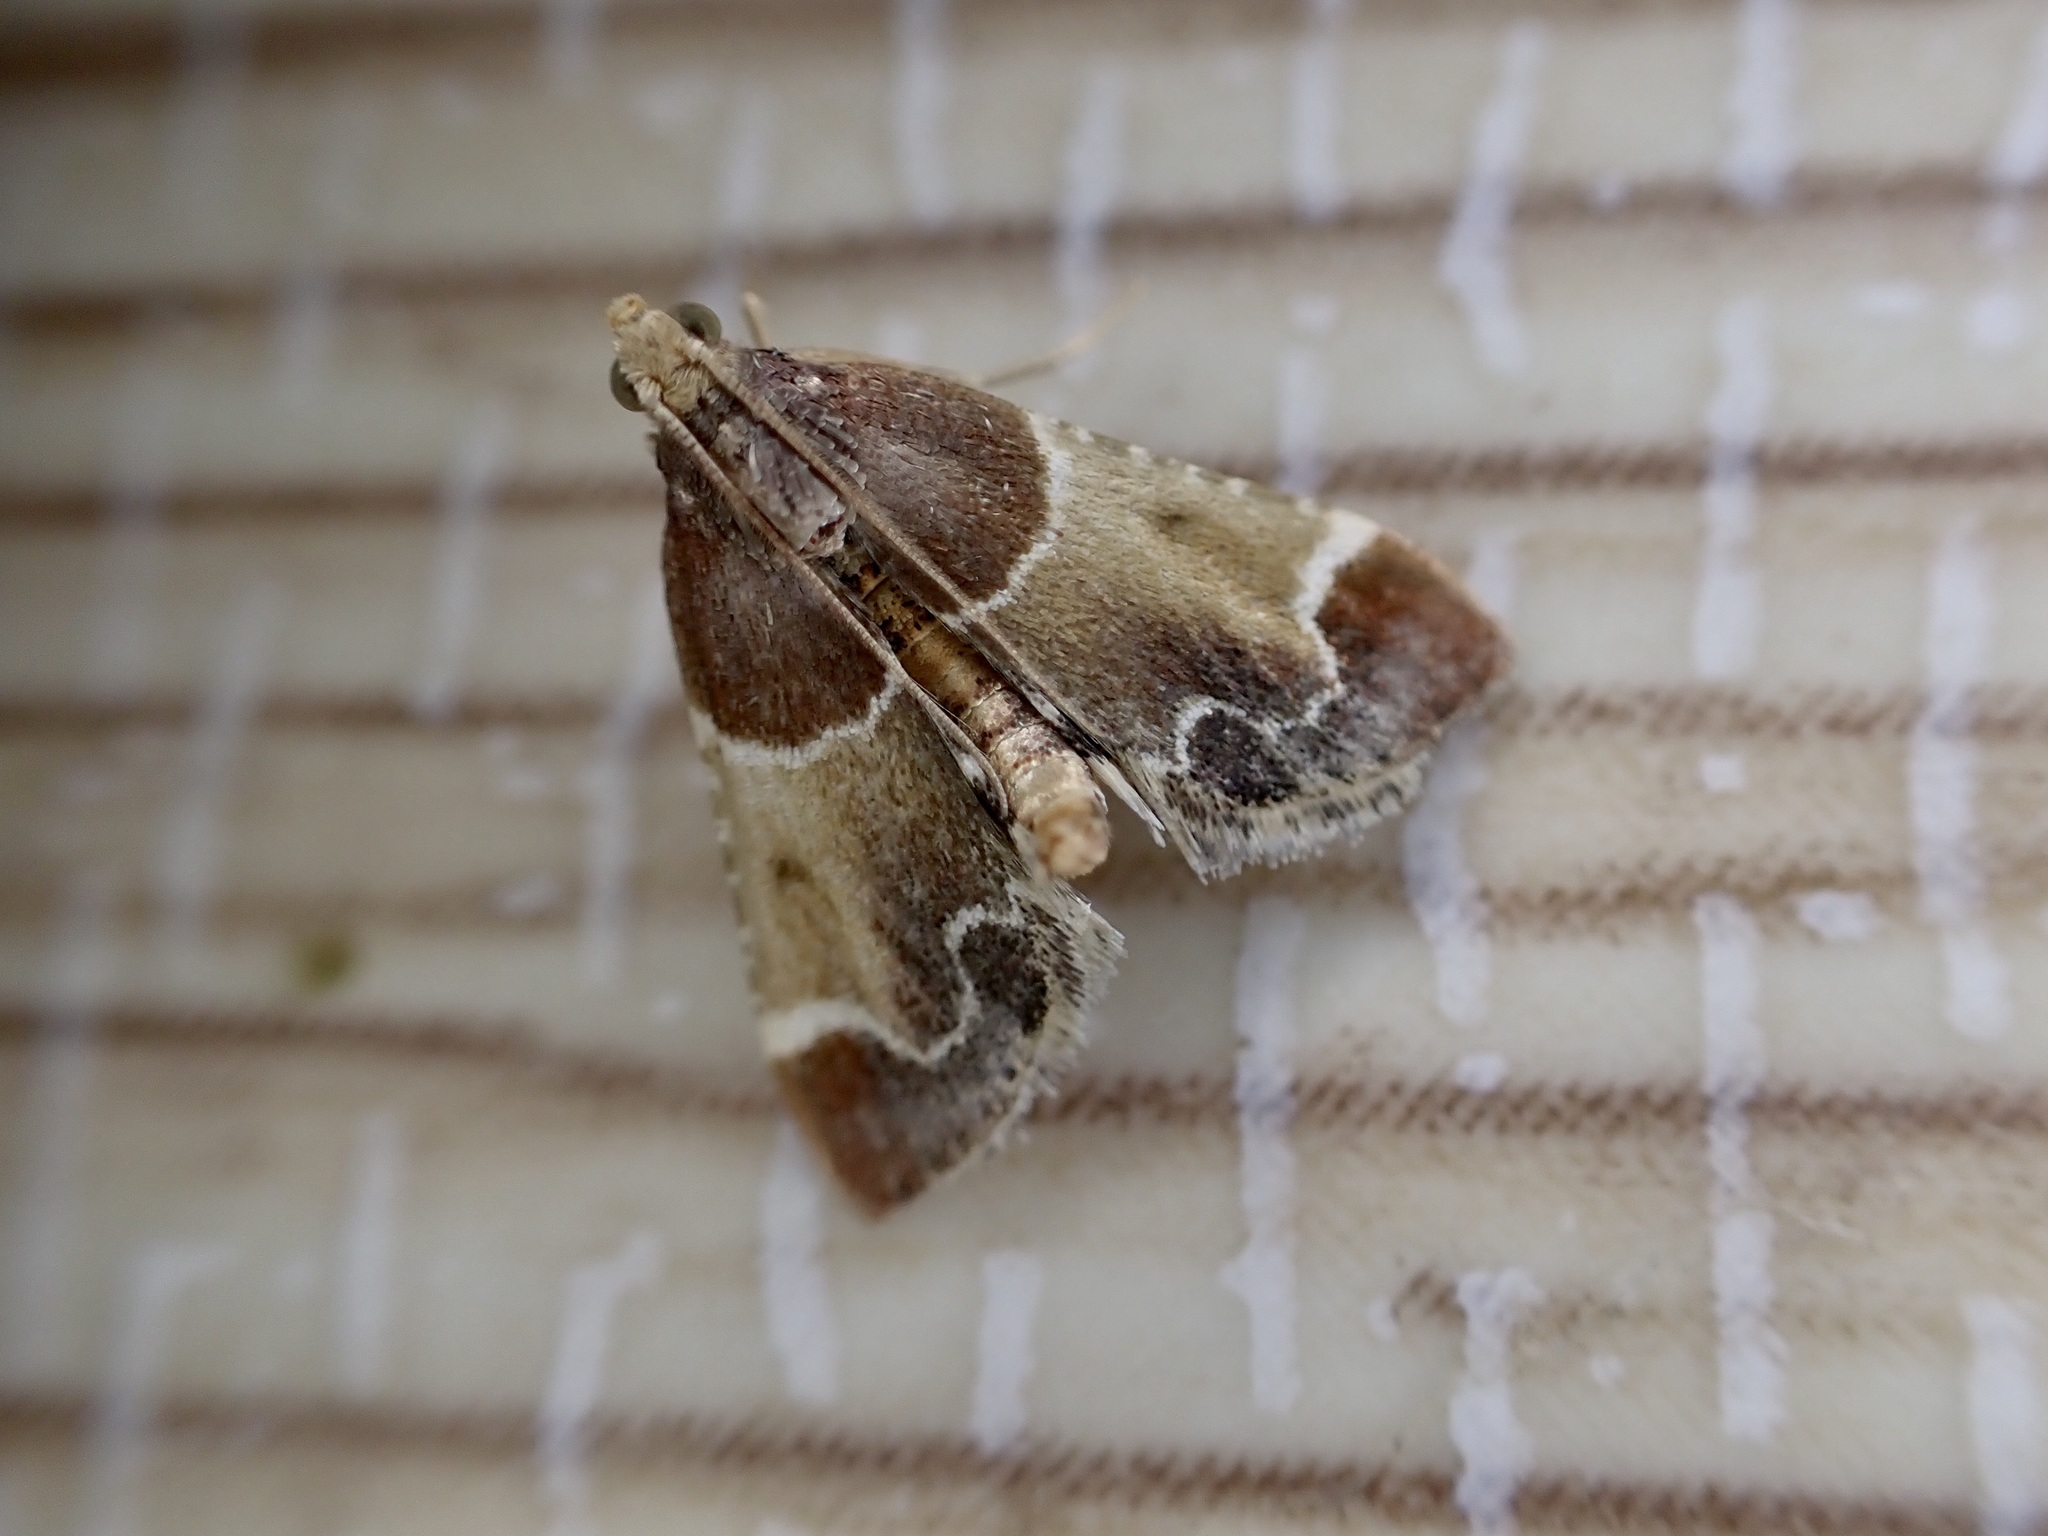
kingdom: Animalia
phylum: Arthropoda
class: Insecta
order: Lepidoptera
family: Pyralidae
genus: Pyralis
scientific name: Pyralis farinalis
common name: Meal moth
